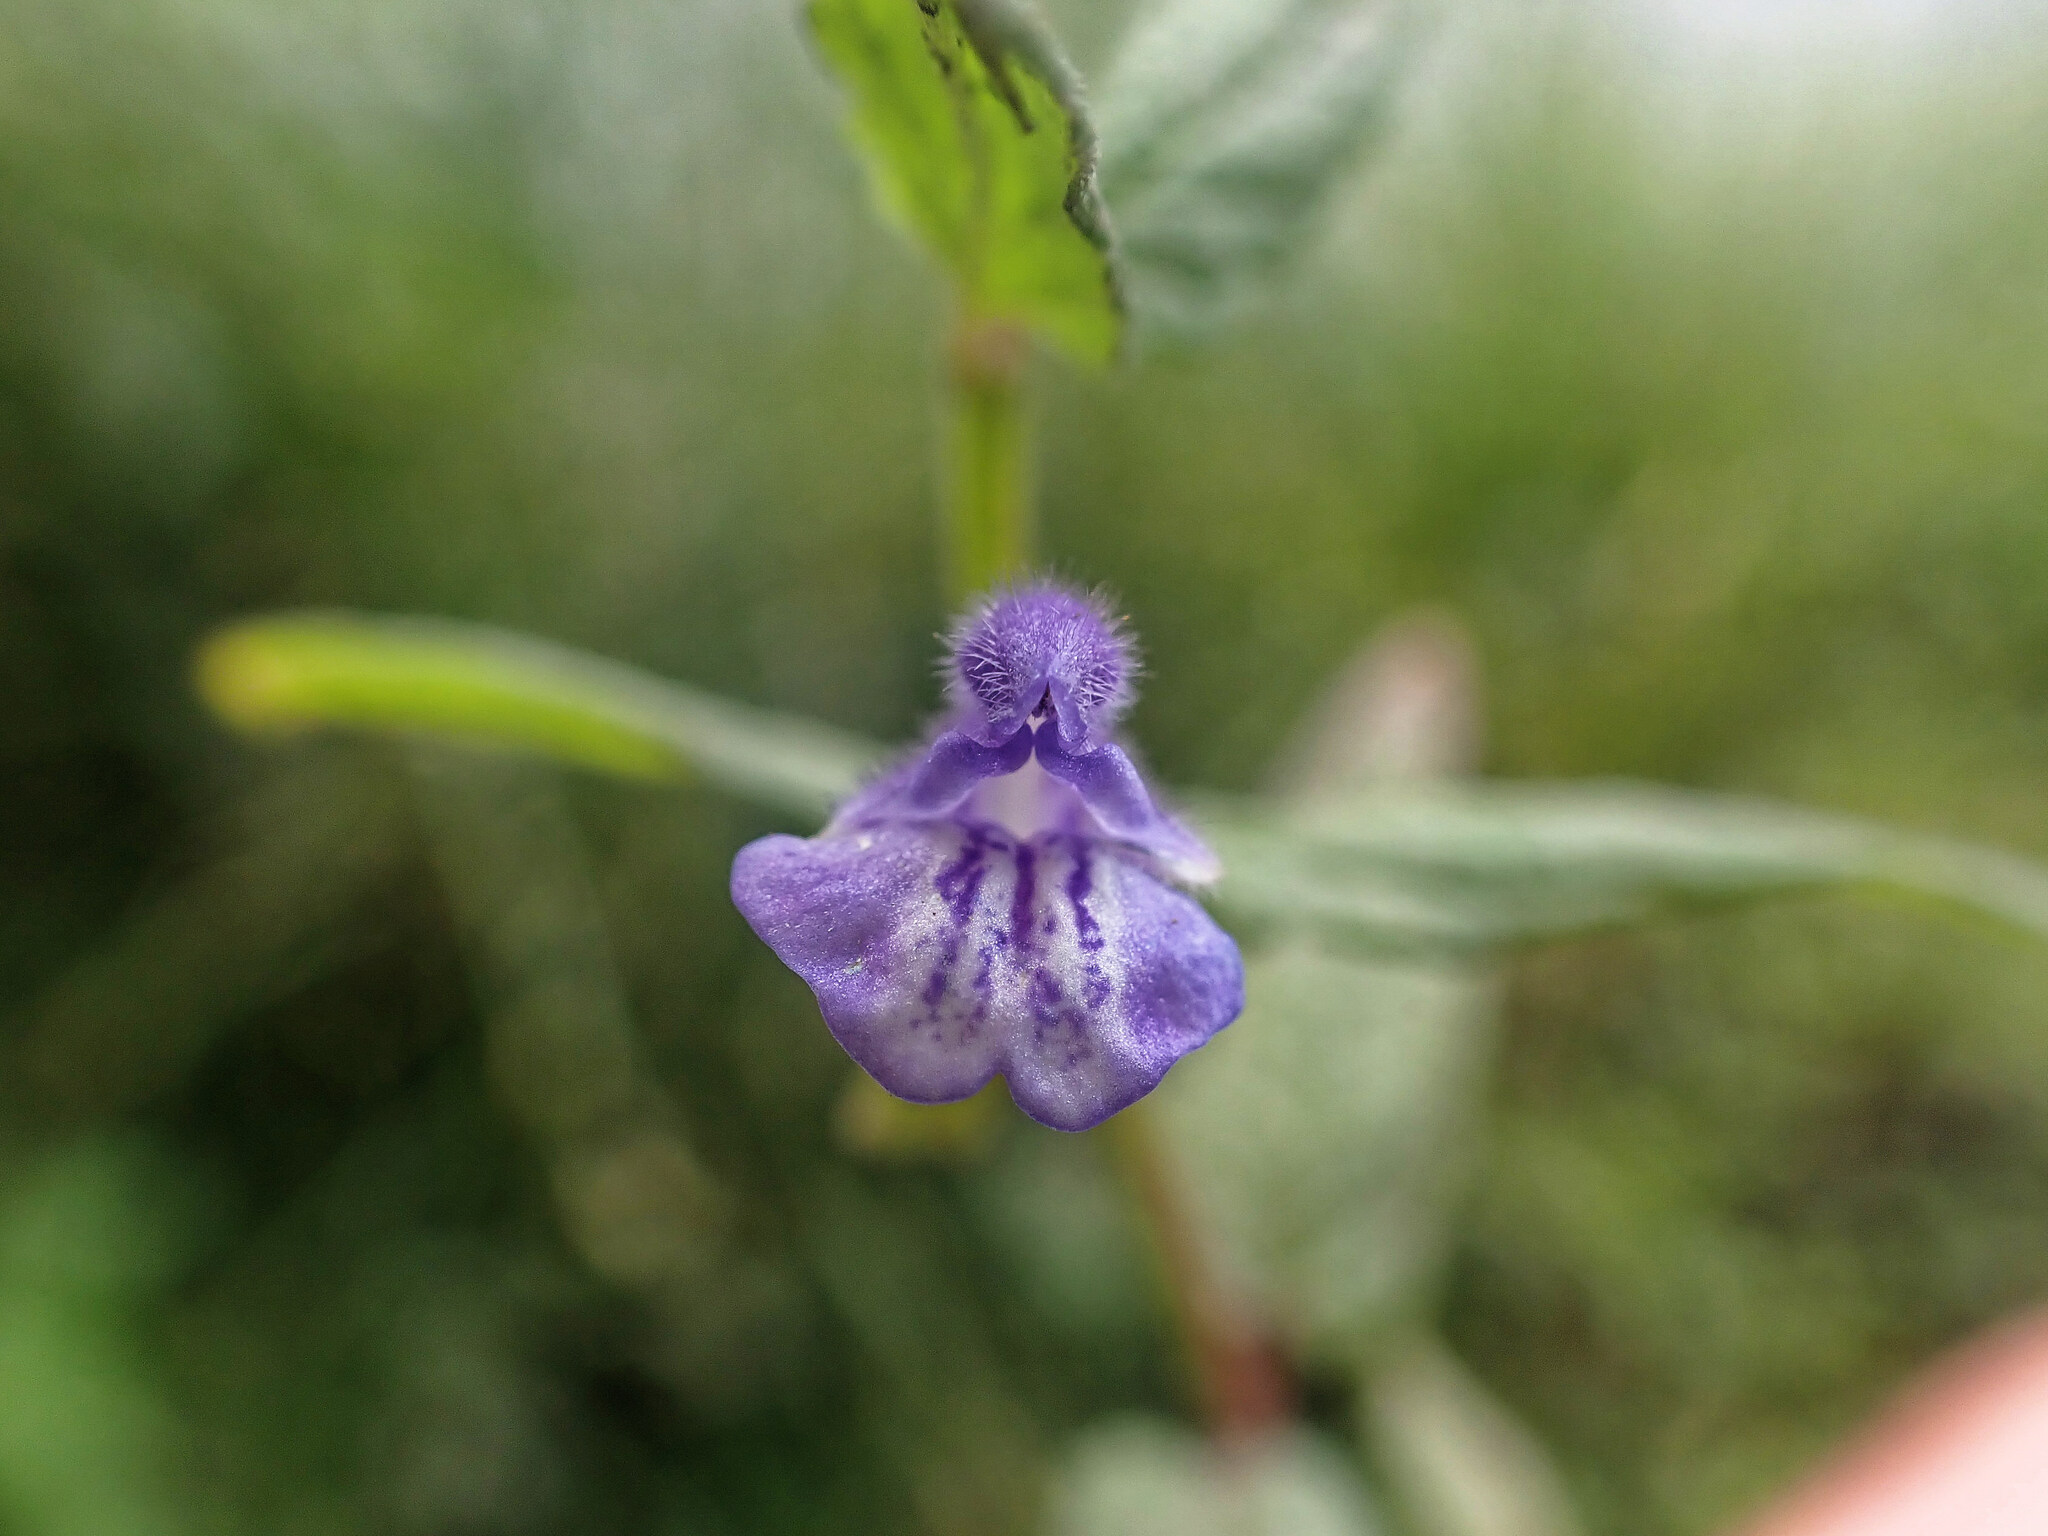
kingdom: Plantae
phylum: Tracheophyta
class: Magnoliopsida
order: Lamiales
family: Lamiaceae
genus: Scutellaria
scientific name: Scutellaria galericulata
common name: Skullcap
